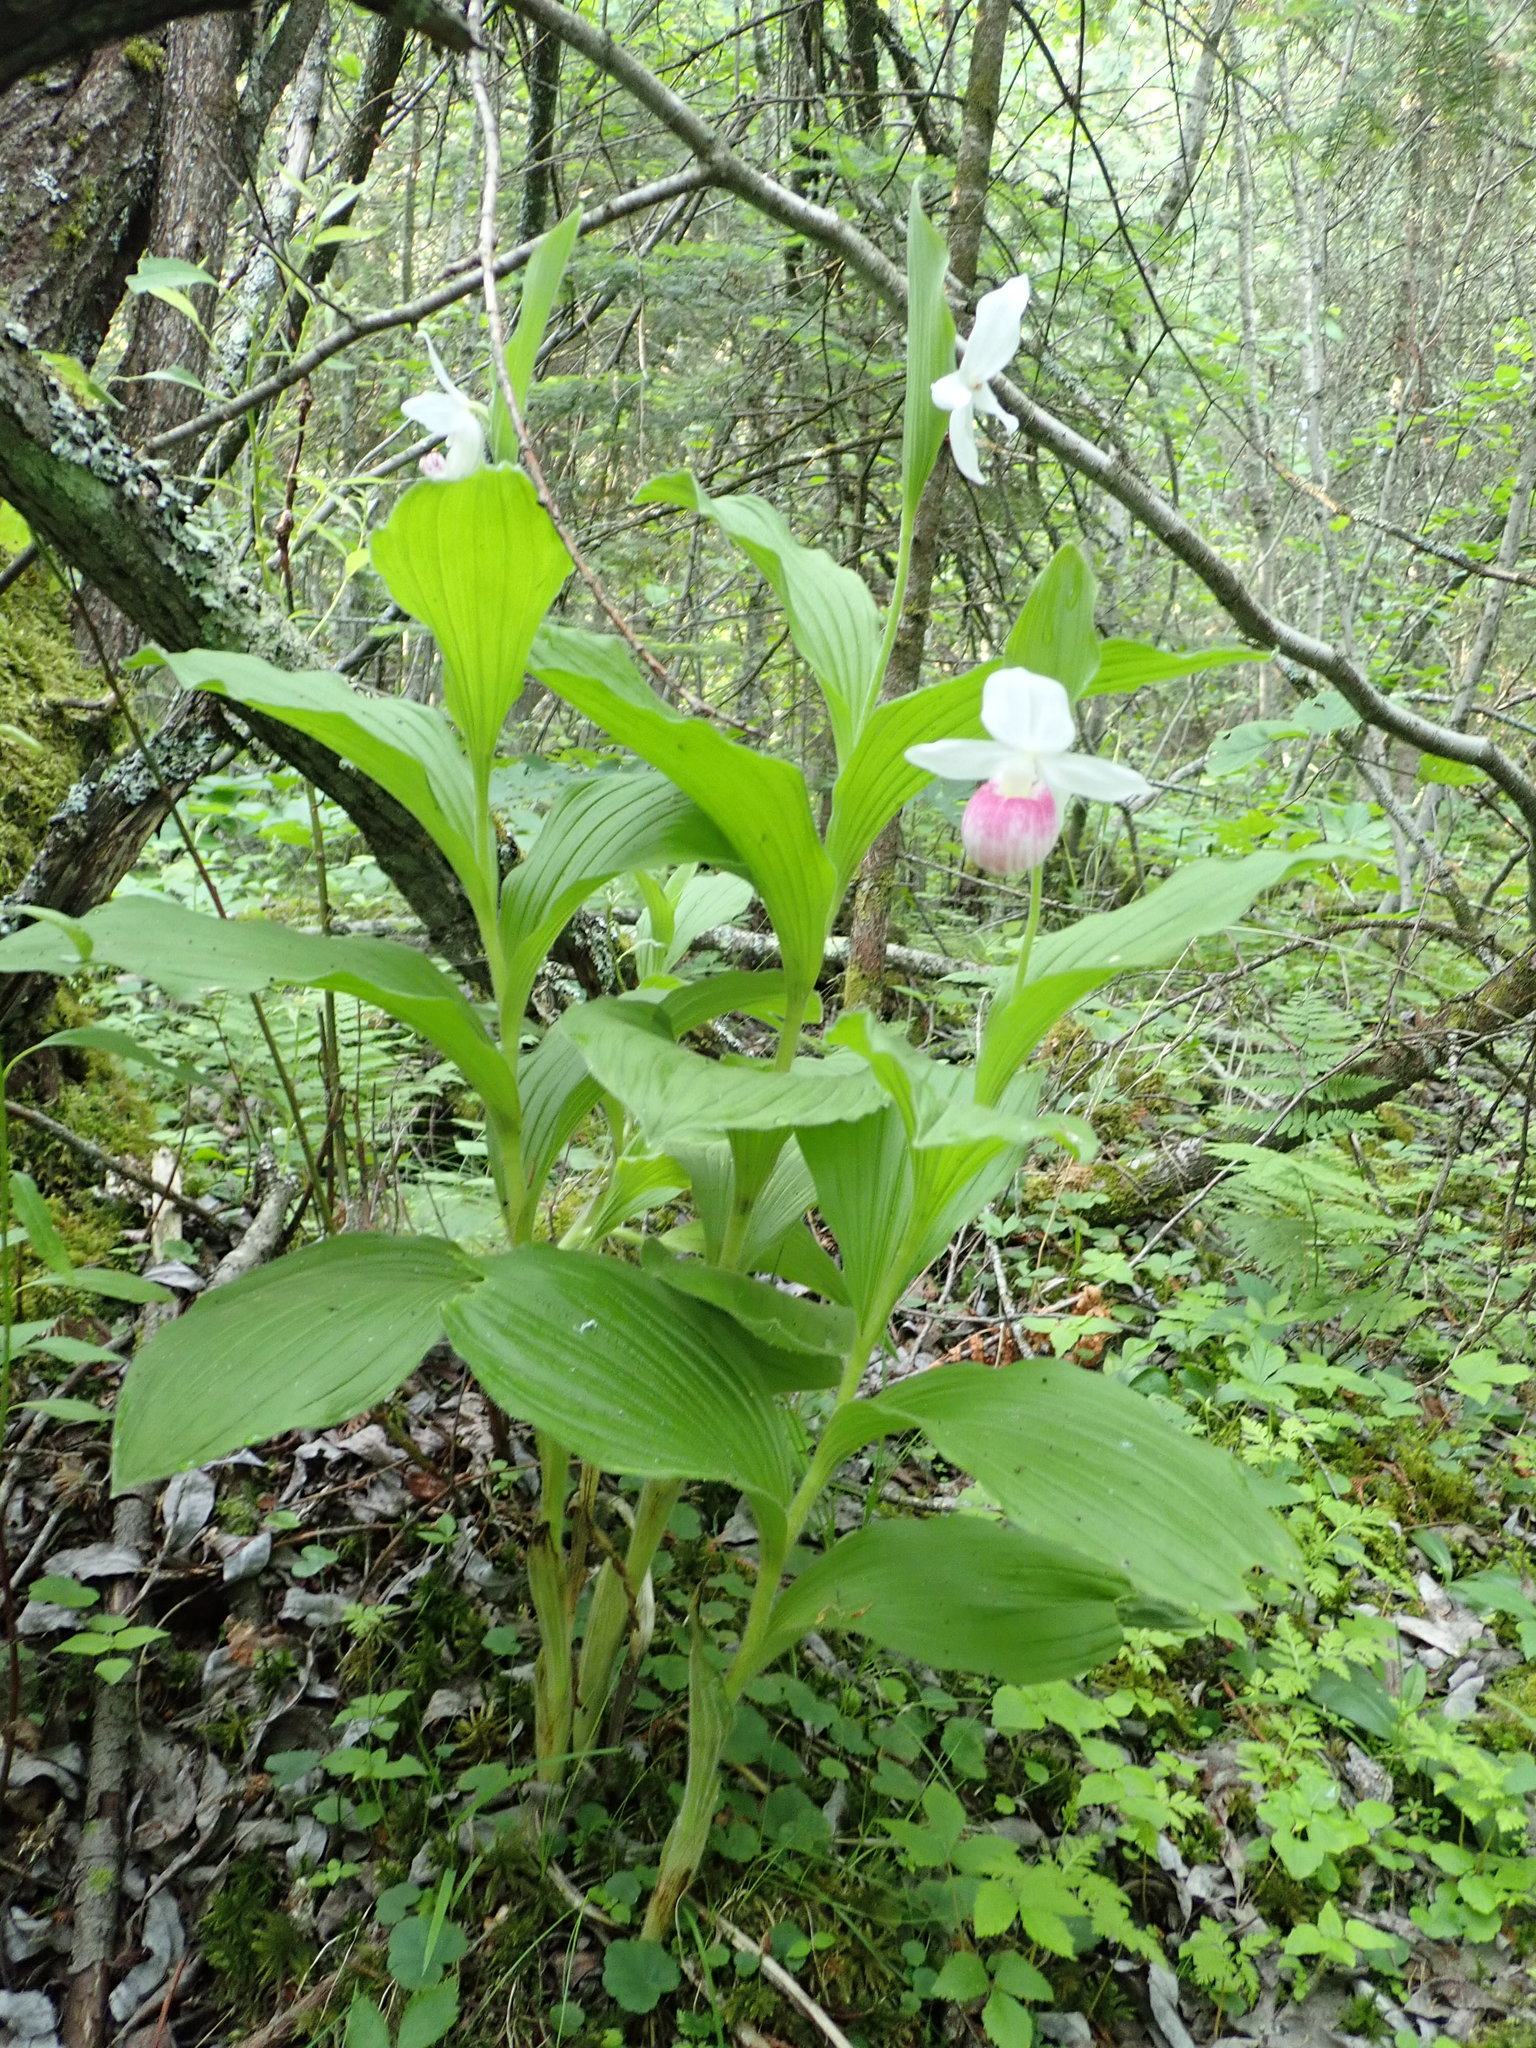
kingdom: Plantae
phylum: Tracheophyta
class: Liliopsida
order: Asparagales
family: Orchidaceae
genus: Cypripedium
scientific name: Cypripedium reginae
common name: Queen lady's-slipper
